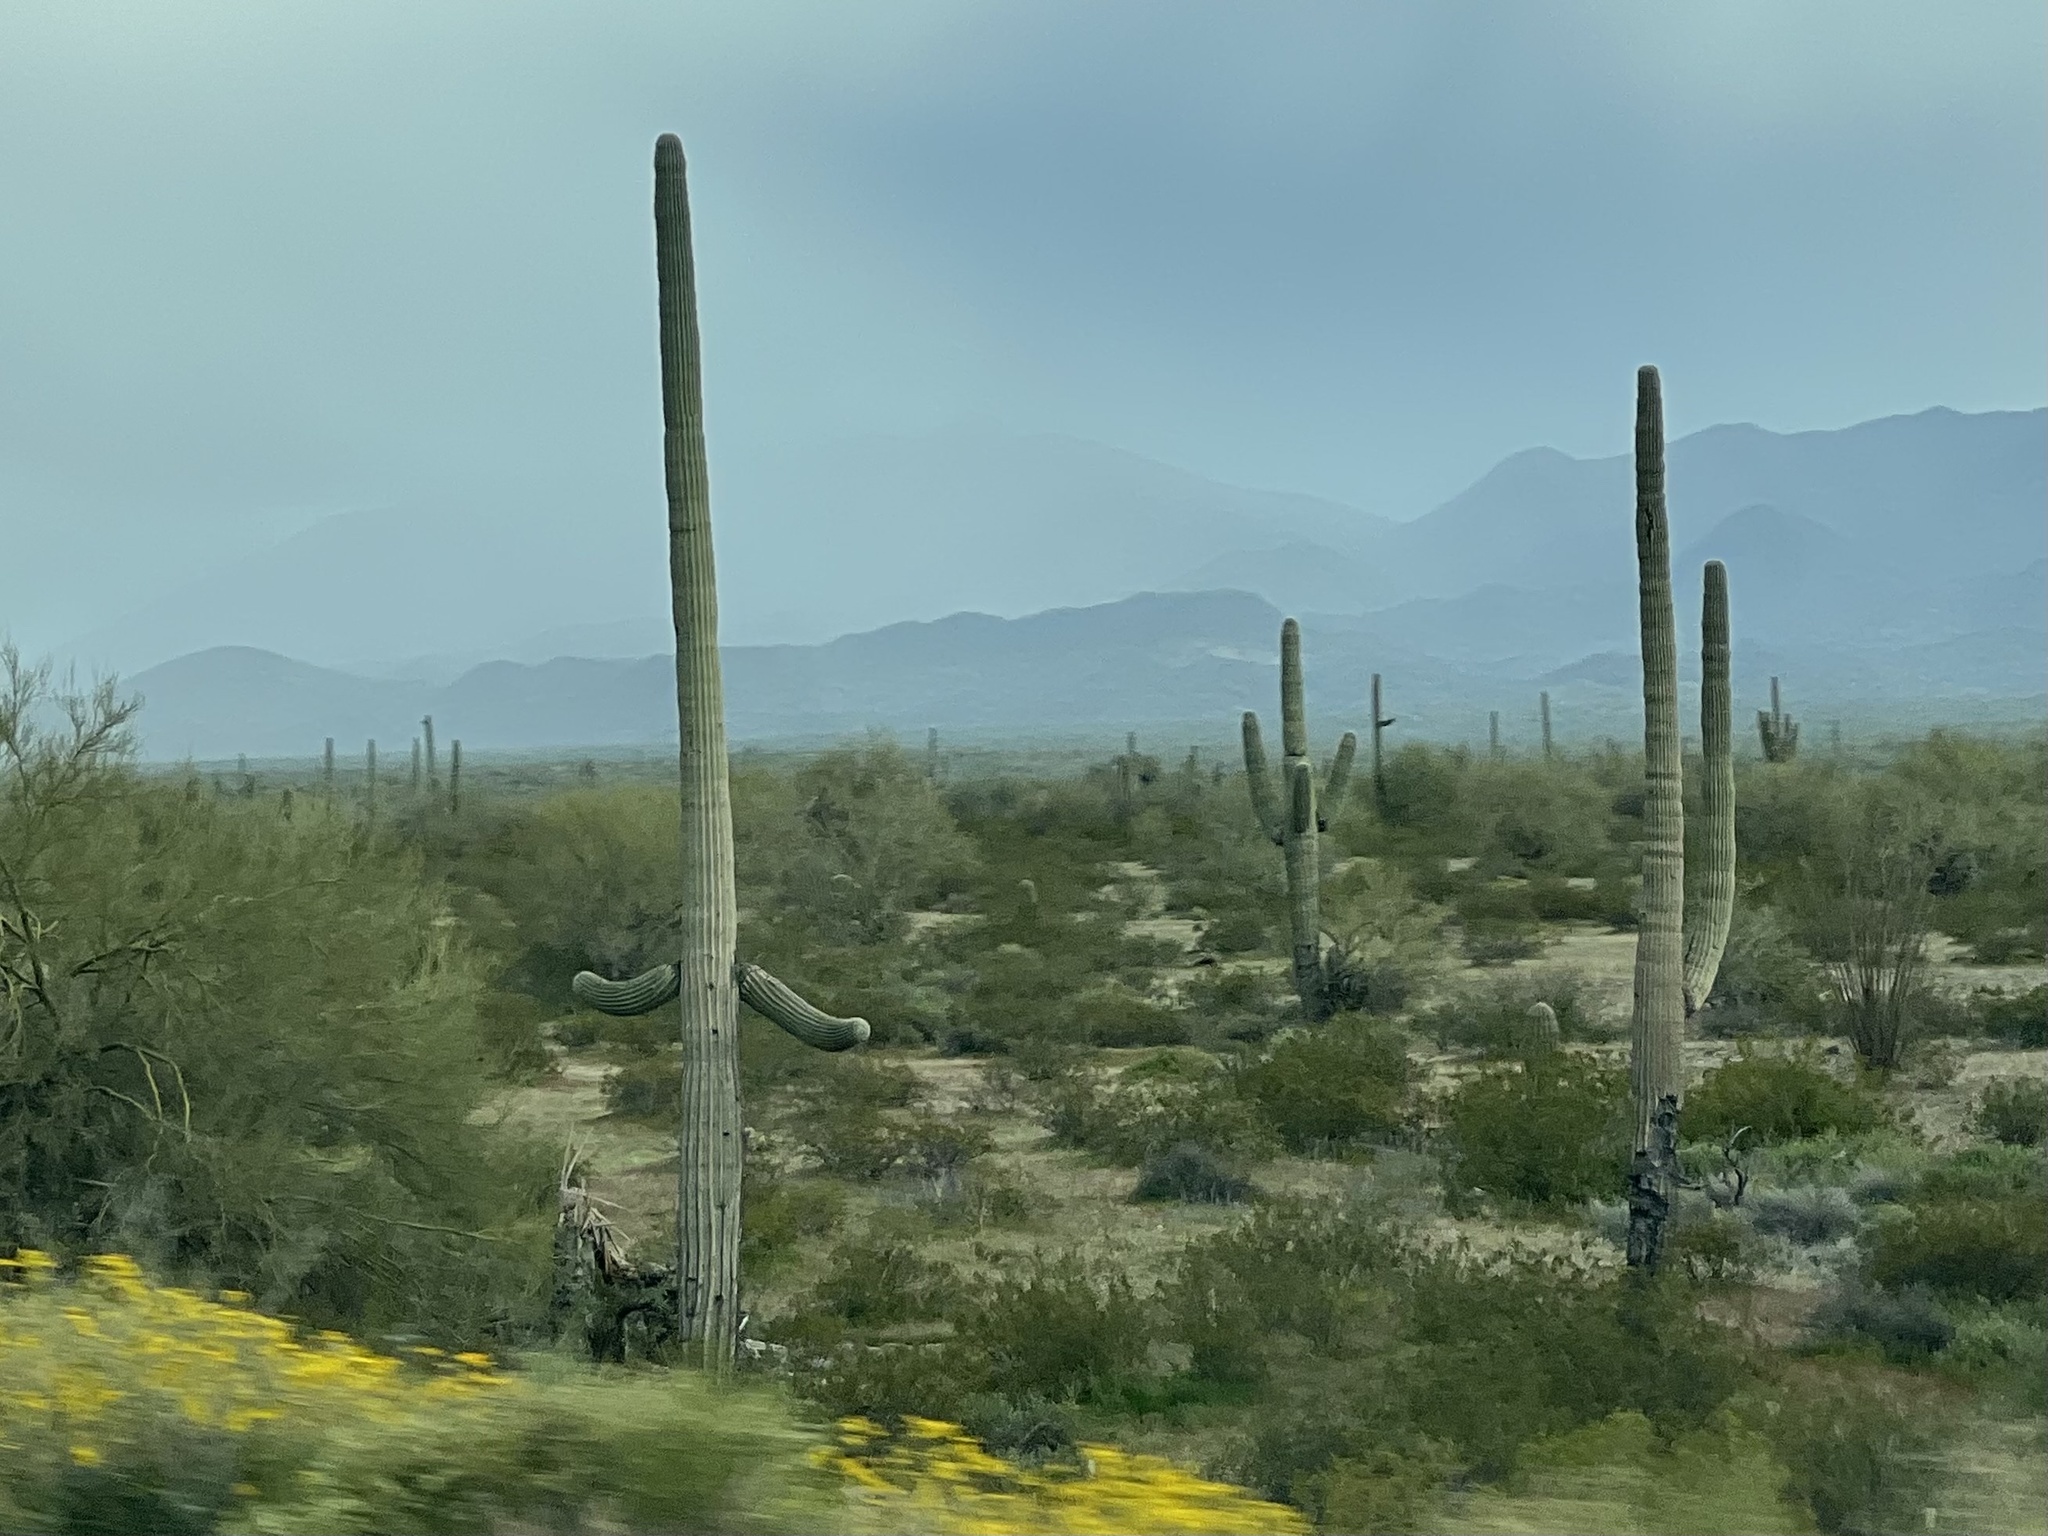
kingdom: Plantae
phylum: Tracheophyta
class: Magnoliopsida
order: Caryophyllales
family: Cactaceae
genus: Carnegiea
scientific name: Carnegiea gigantea
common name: Saguaro
